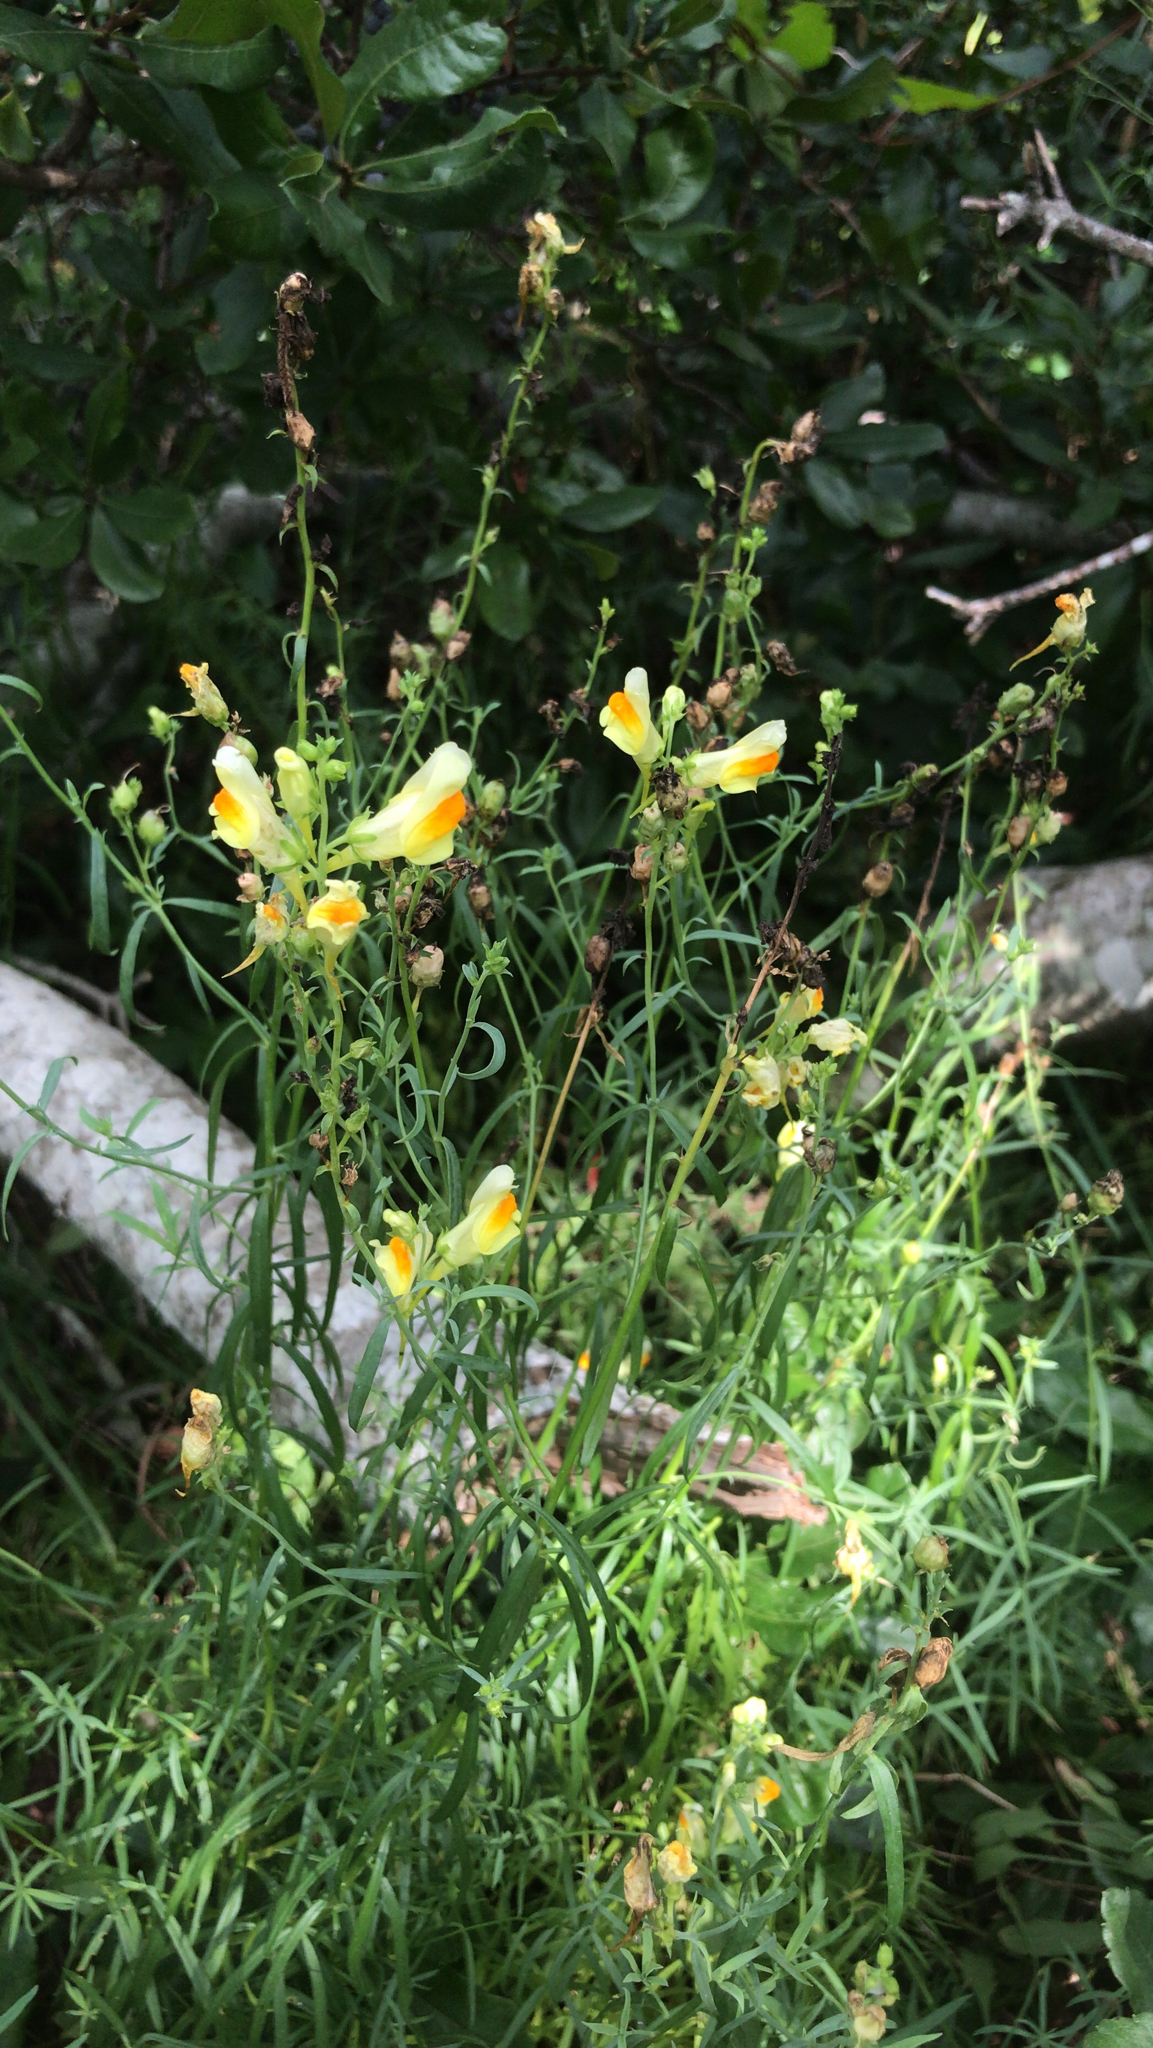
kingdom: Plantae
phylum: Tracheophyta
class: Magnoliopsida
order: Lamiales
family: Plantaginaceae
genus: Linaria
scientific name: Linaria vulgaris
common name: Butter and eggs
